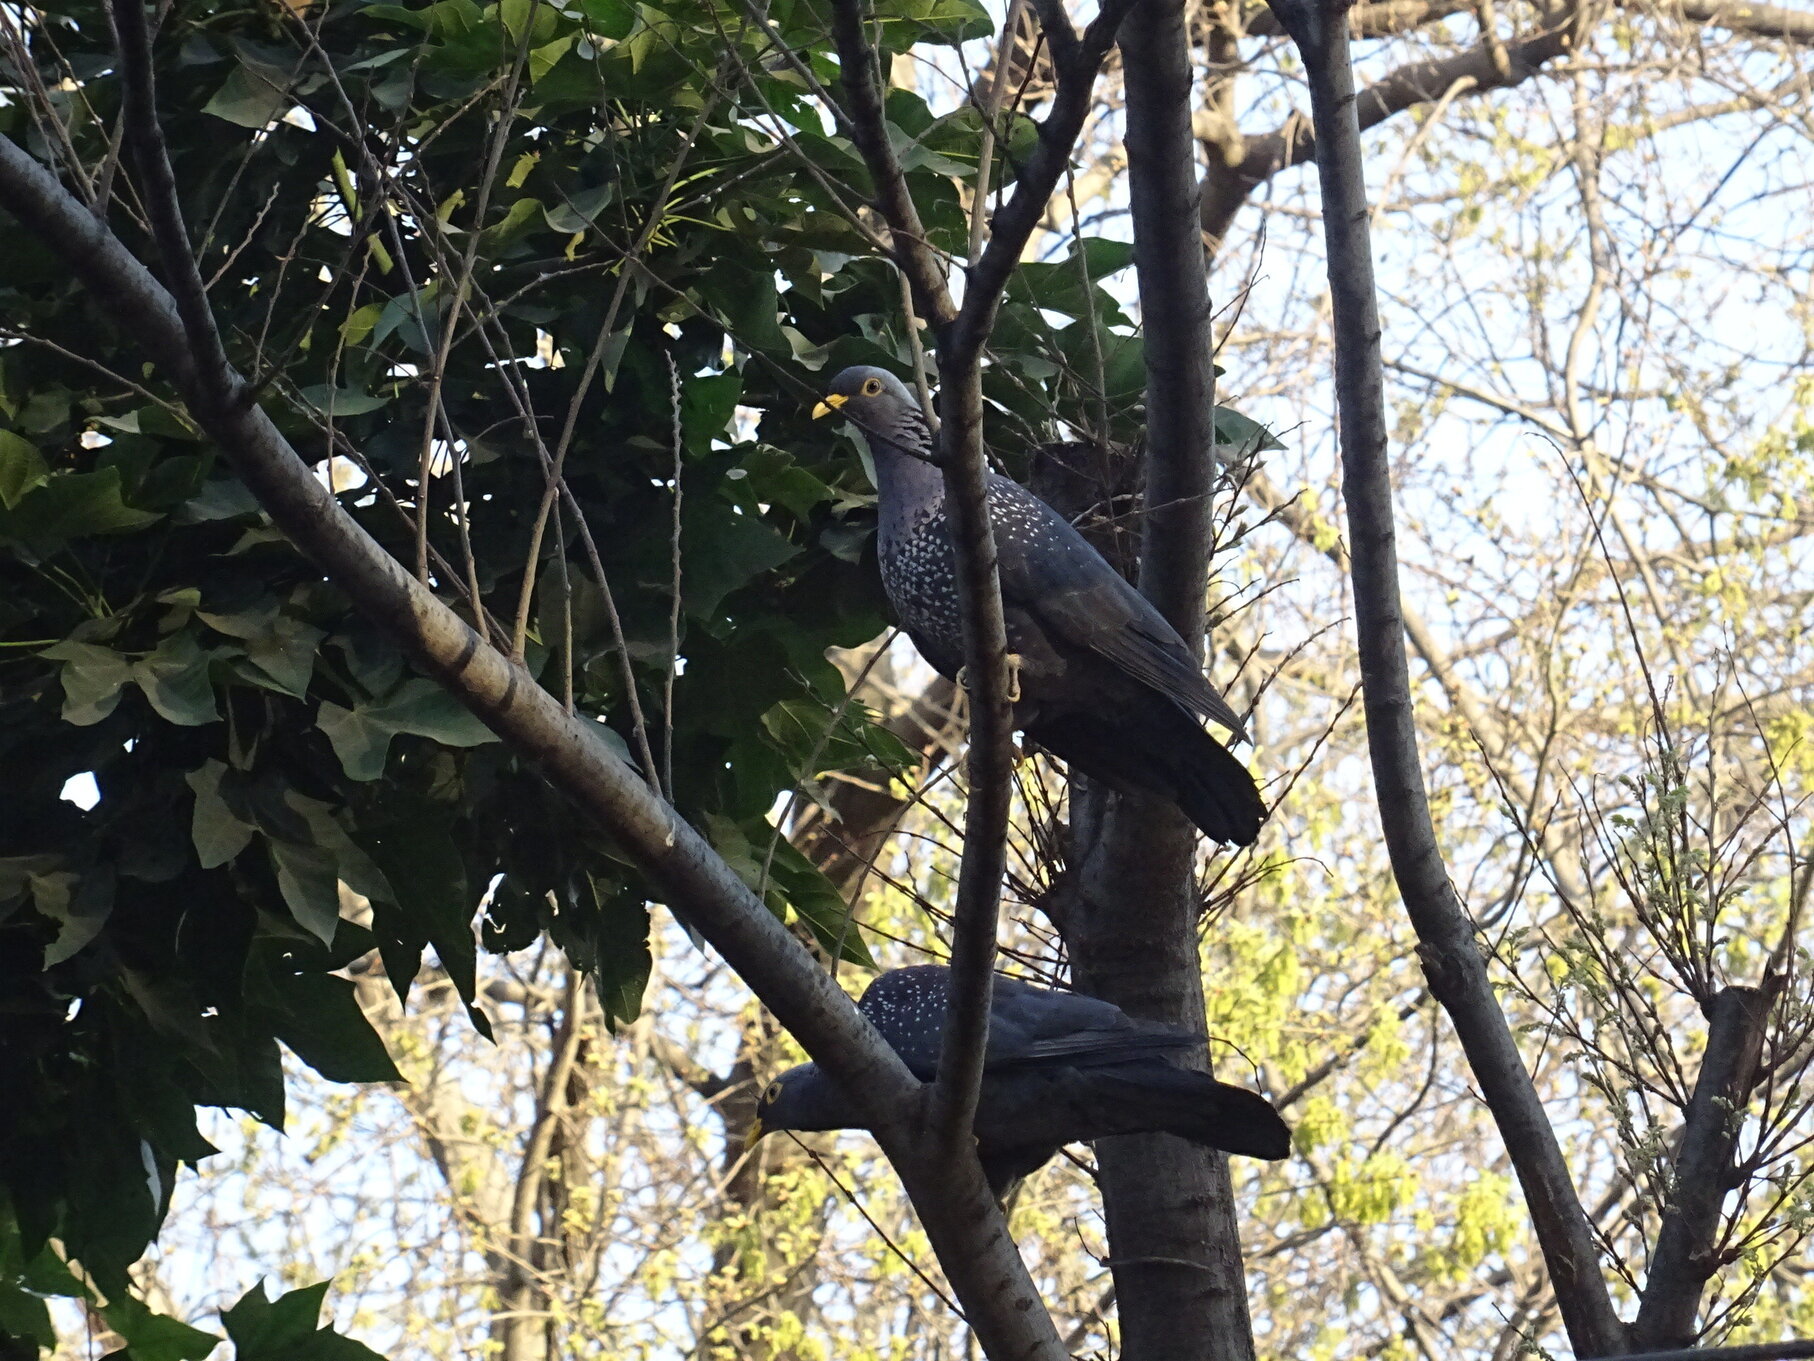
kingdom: Animalia
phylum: Chordata
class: Aves
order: Columbiformes
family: Columbidae
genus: Columba
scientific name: Columba arquatrix
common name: African olive pigeon
